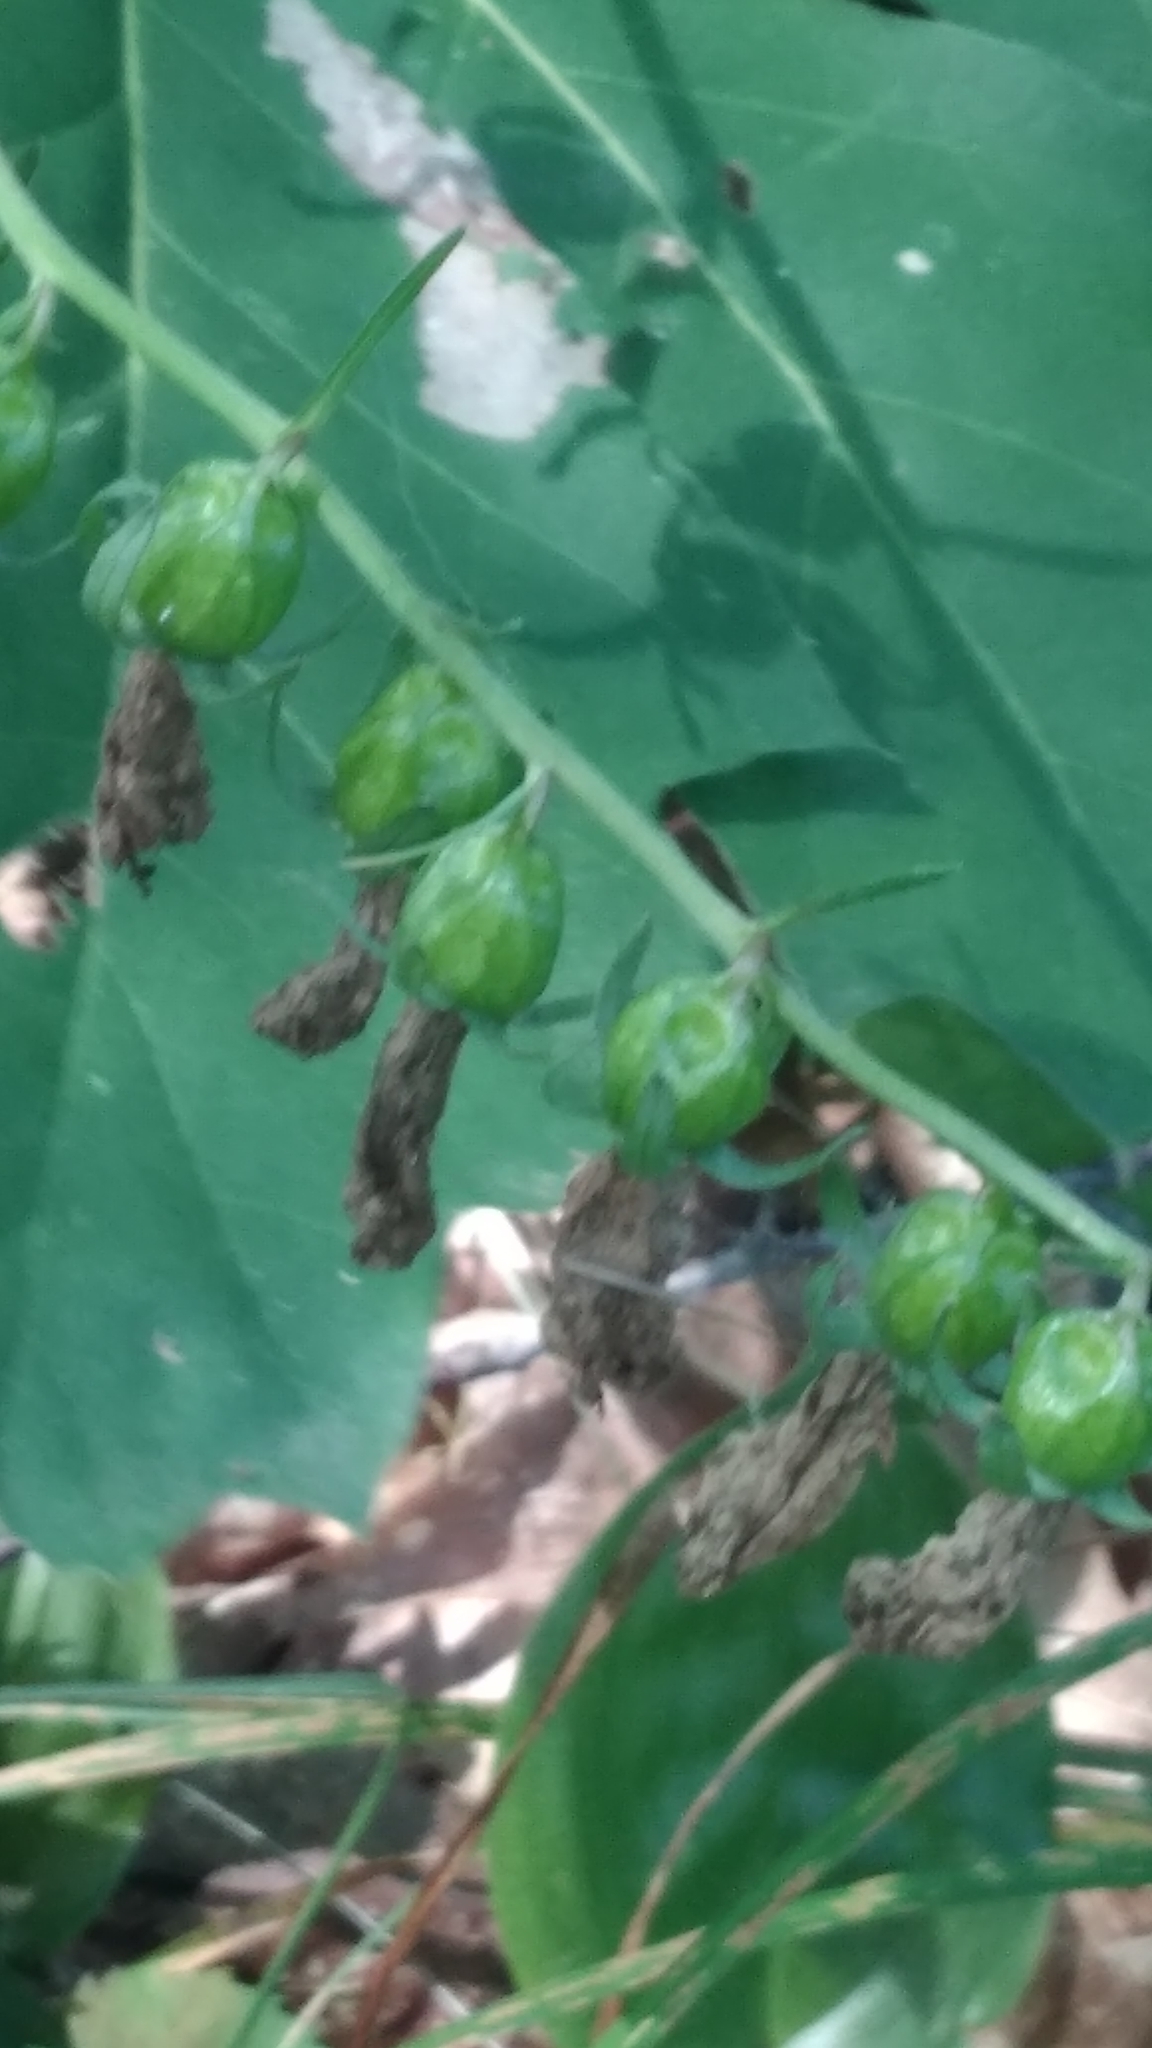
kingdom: Plantae
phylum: Tracheophyta
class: Magnoliopsida
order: Asterales
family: Campanulaceae
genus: Campanula
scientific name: Campanula rapunculoides
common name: Creeping bellflower
